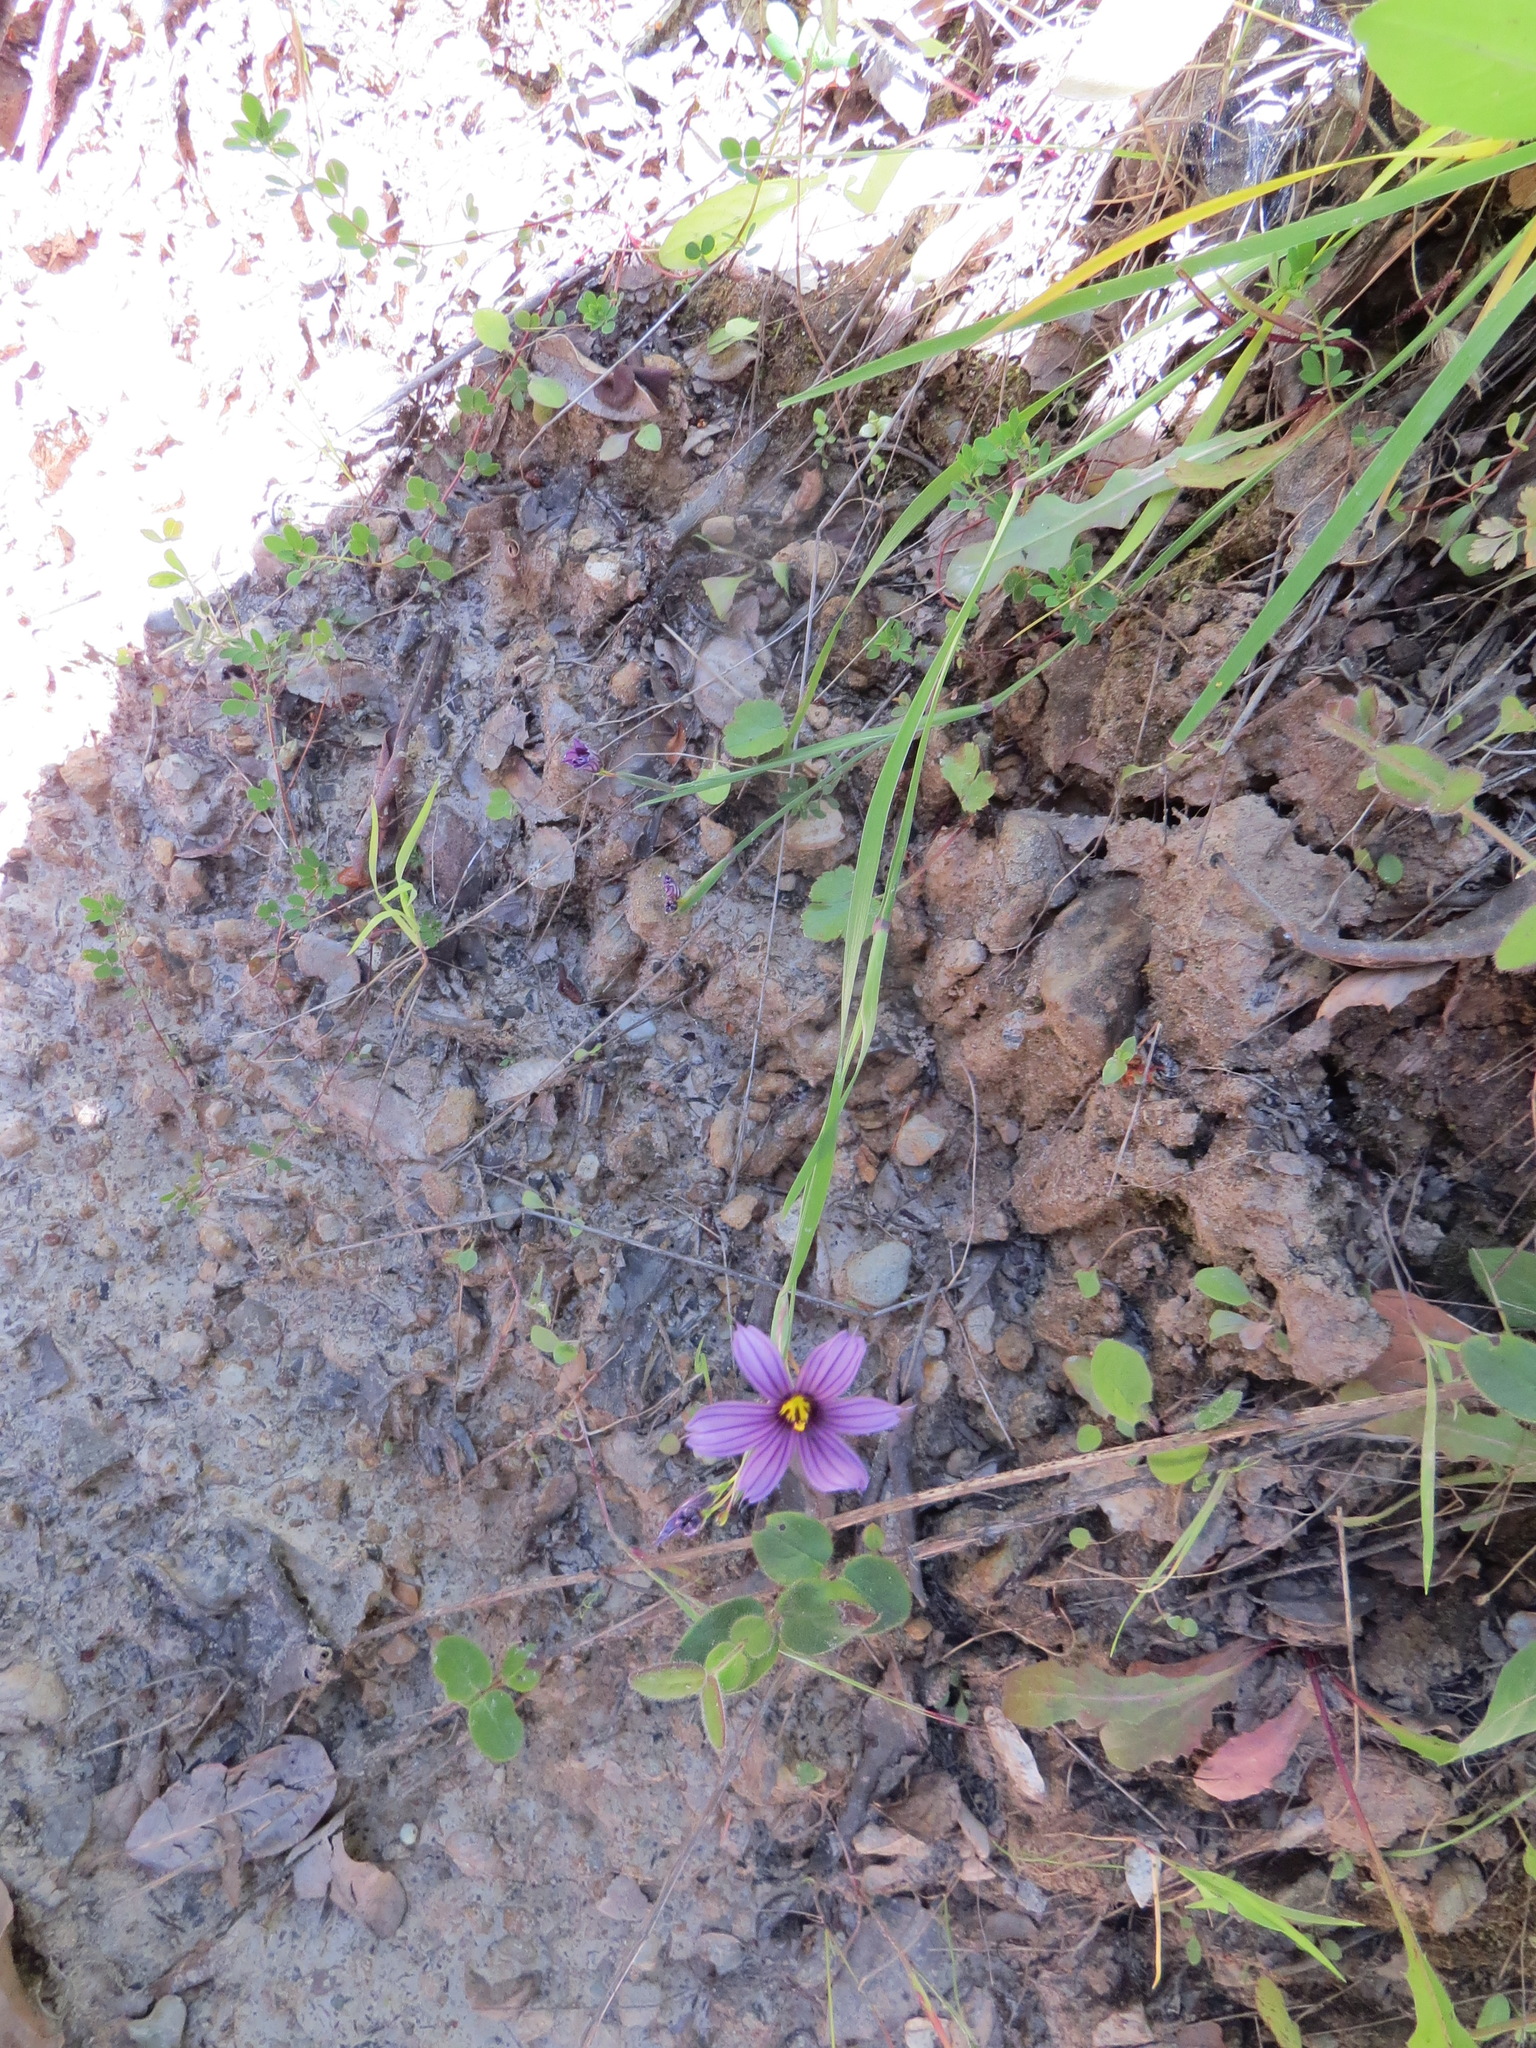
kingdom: Plantae
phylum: Tracheophyta
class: Liliopsida
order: Asparagales
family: Iridaceae
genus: Sisyrinchium
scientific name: Sisyrinchium bellum
